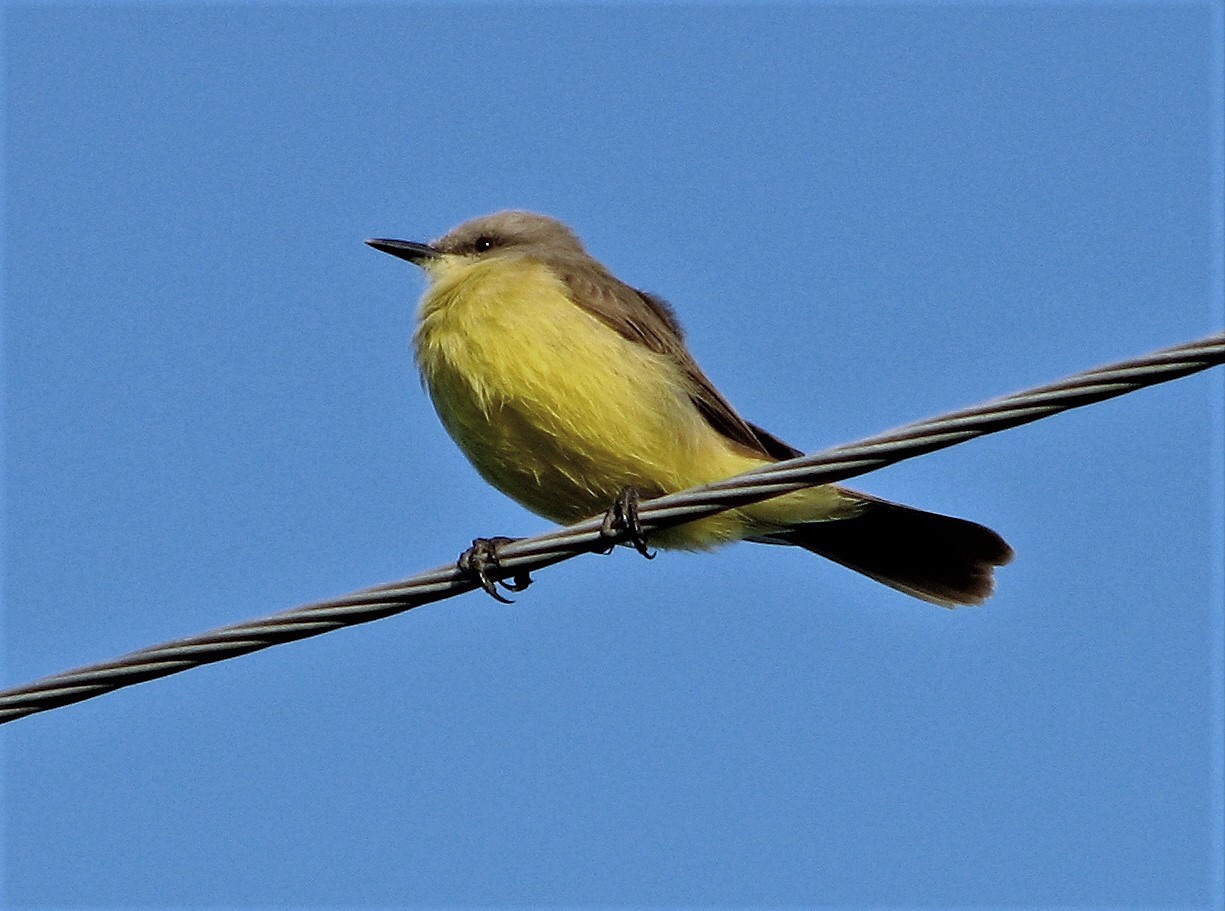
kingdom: Animalia
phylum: Chordata
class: Aves
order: Passeriformes
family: Tyrannidae
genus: Machetornis
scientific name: Machetornis rixosa
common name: Cattle tyrant
